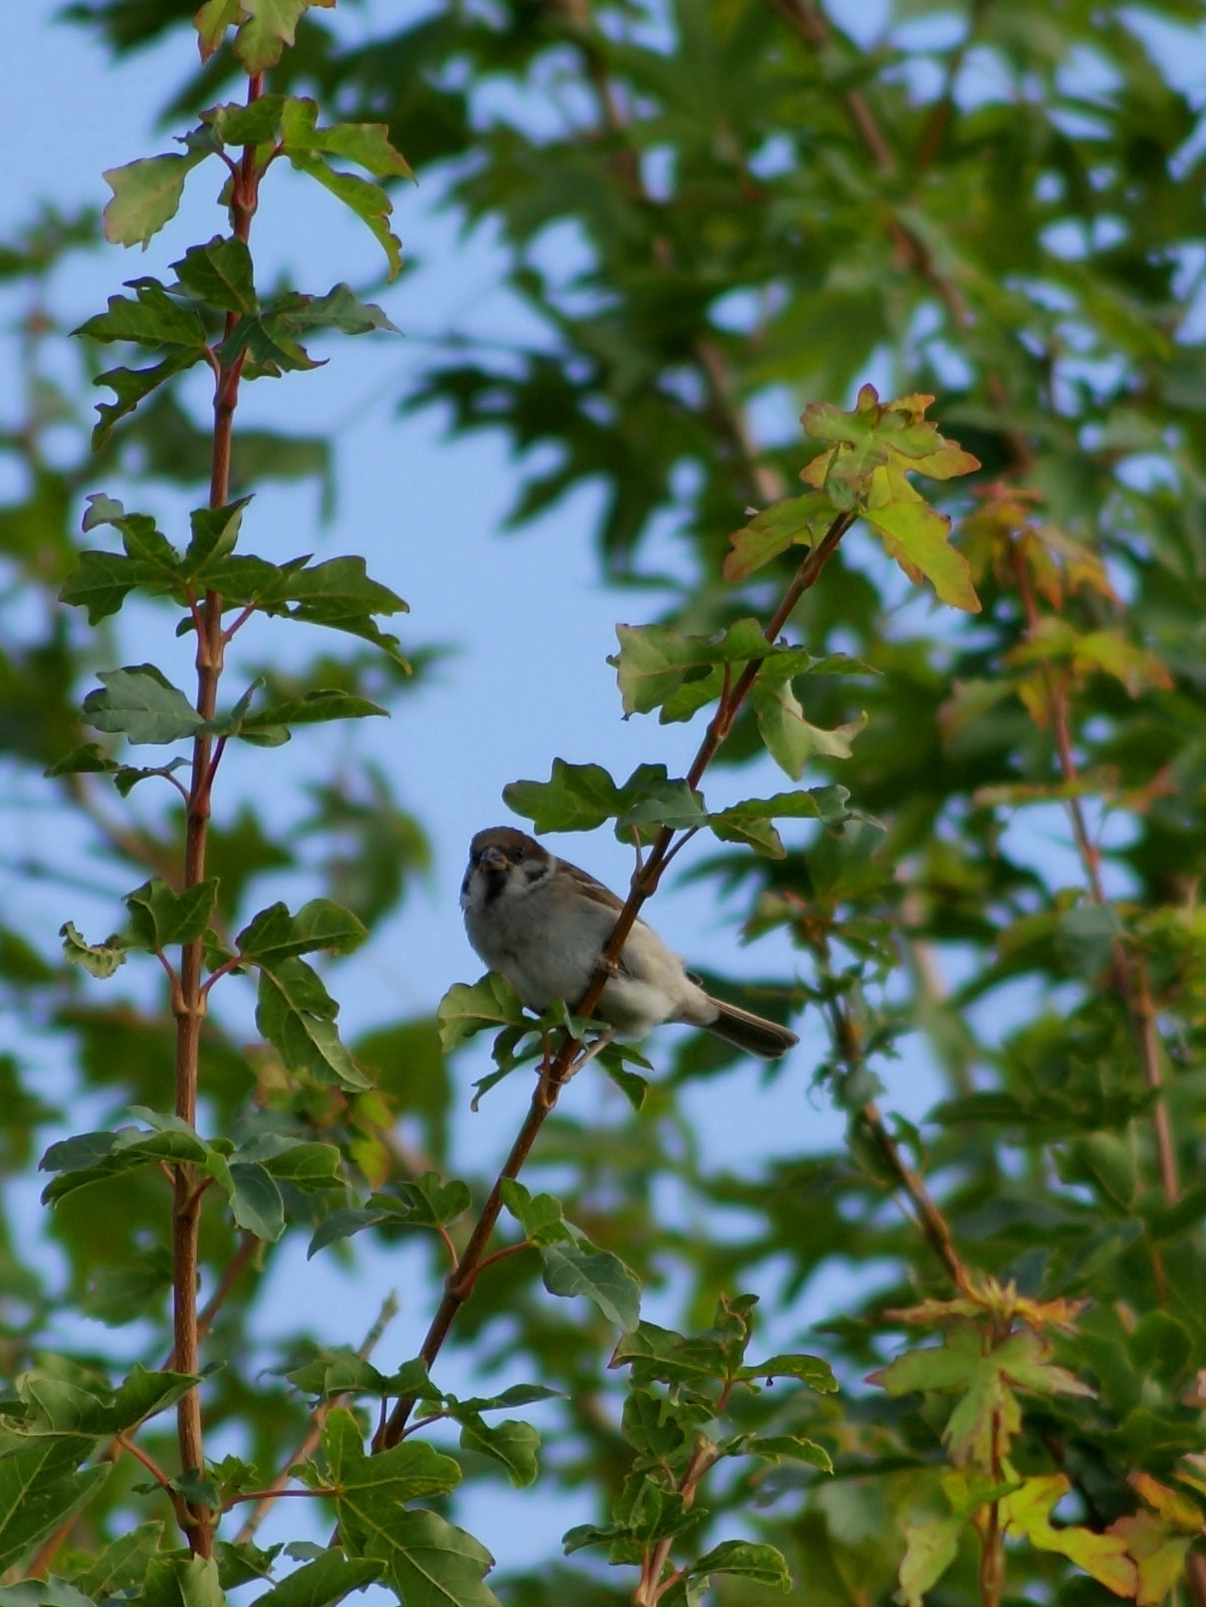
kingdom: Animalia
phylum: Chordata
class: Aves
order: Passeriformes
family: Passeridae
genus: Passer
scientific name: Passer montanus
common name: Eurasian tree sparrow
